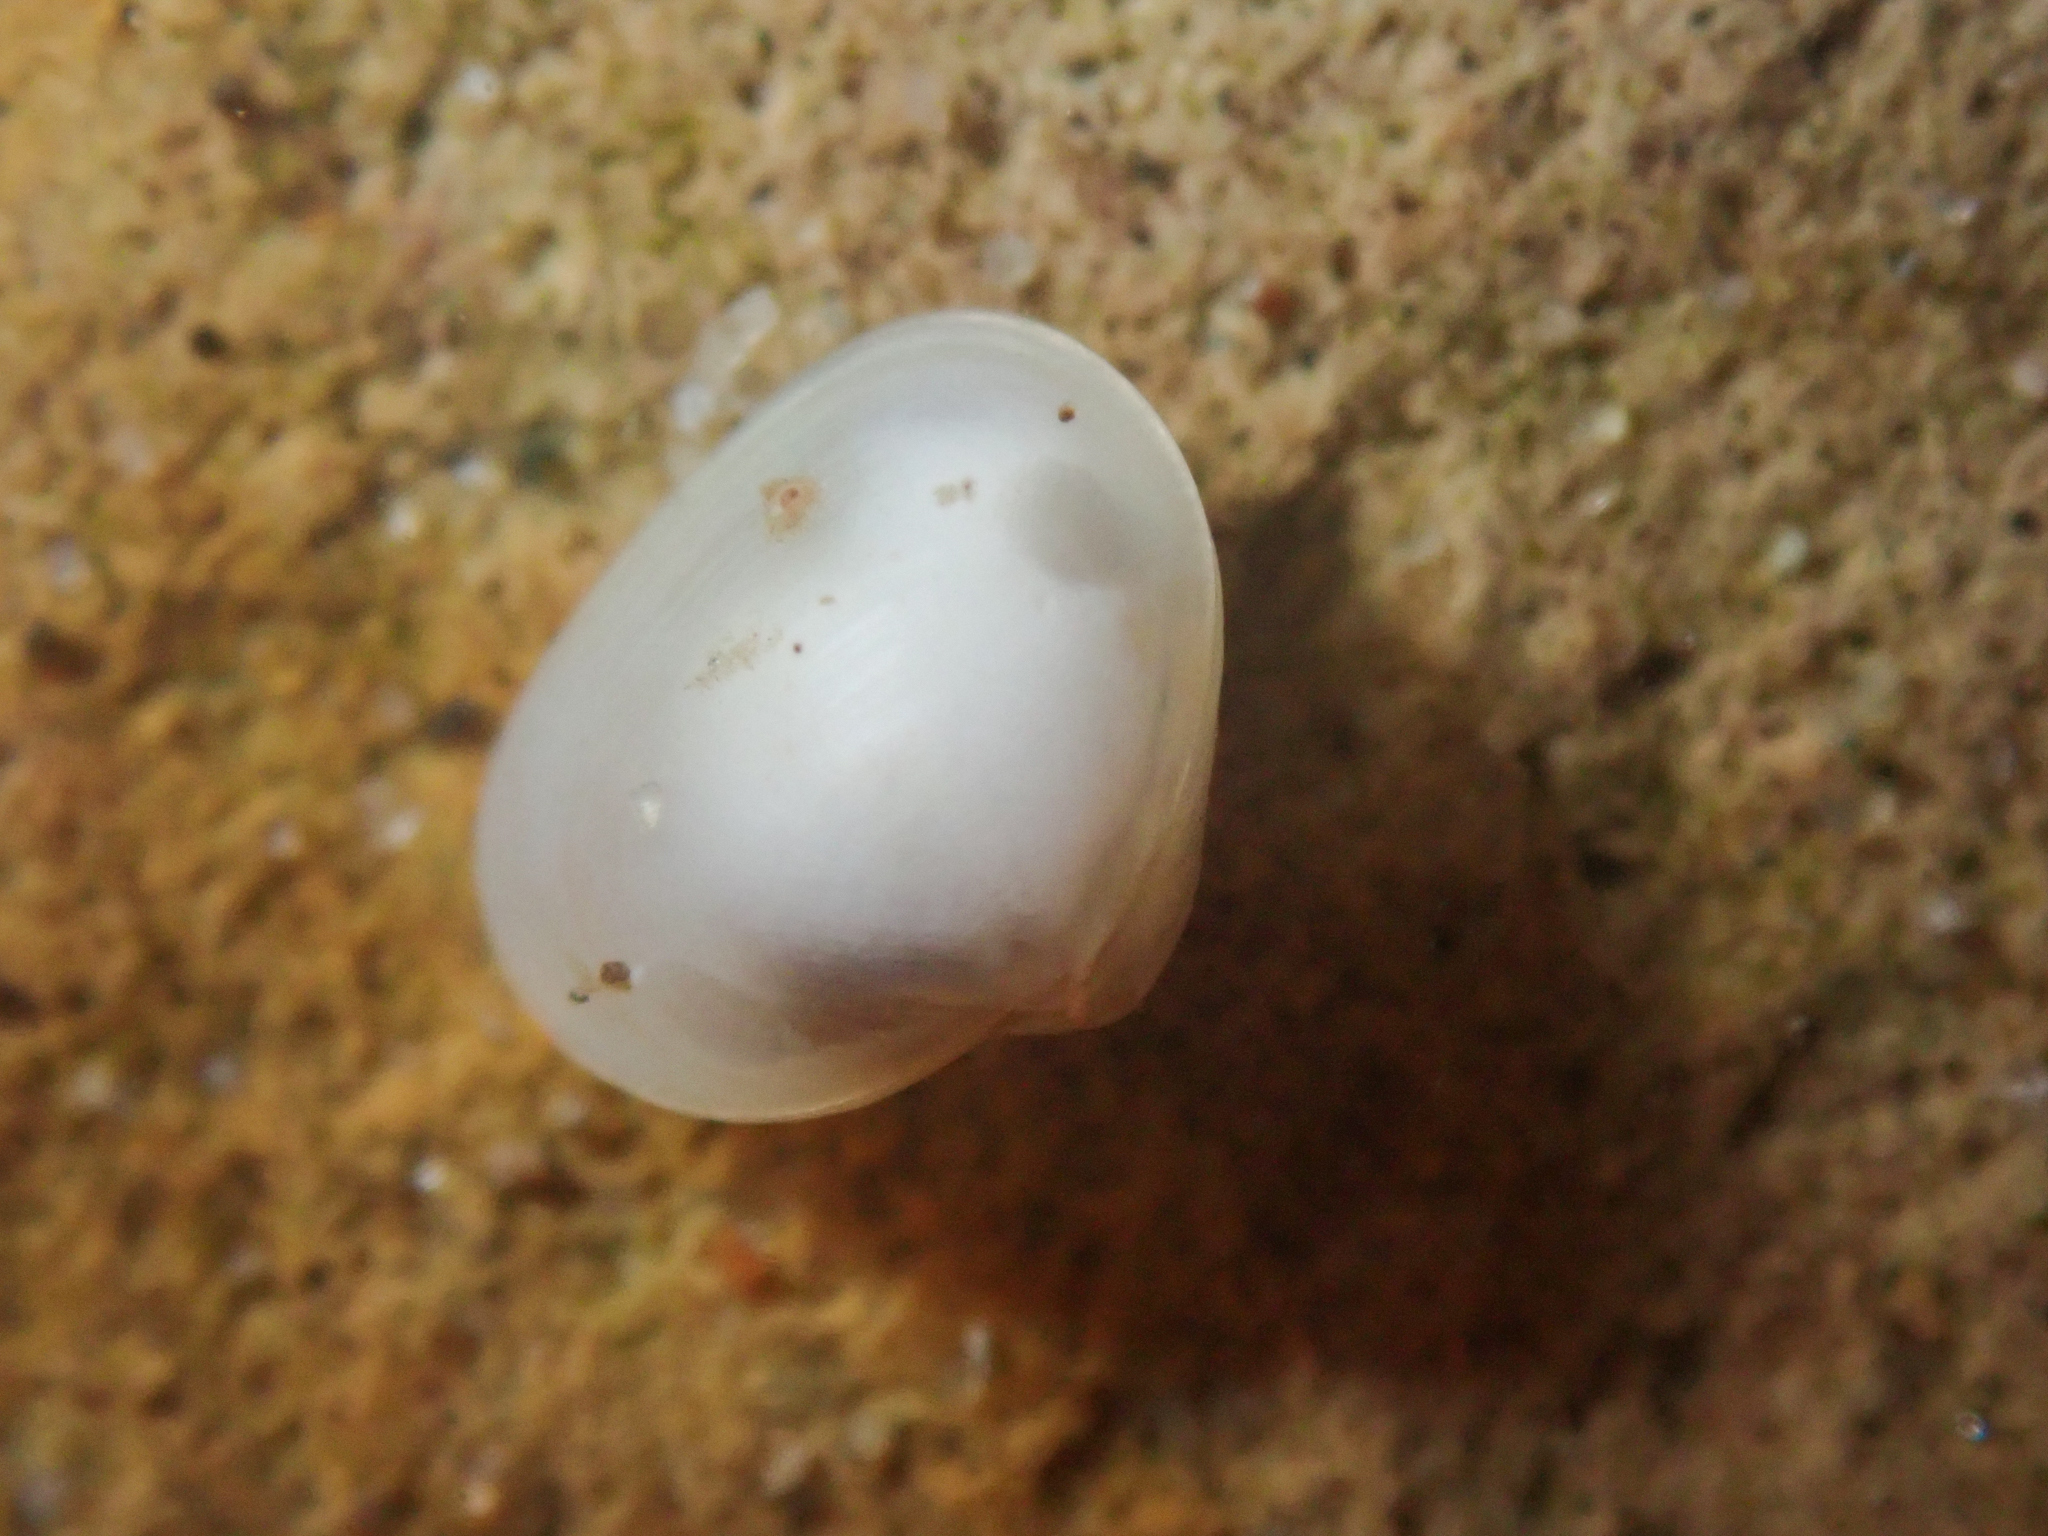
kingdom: Animalia
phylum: Mollusca
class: Bivalvia
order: Galeommatida
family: Lasaeidae
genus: Kellia
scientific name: Kellia laperousii
